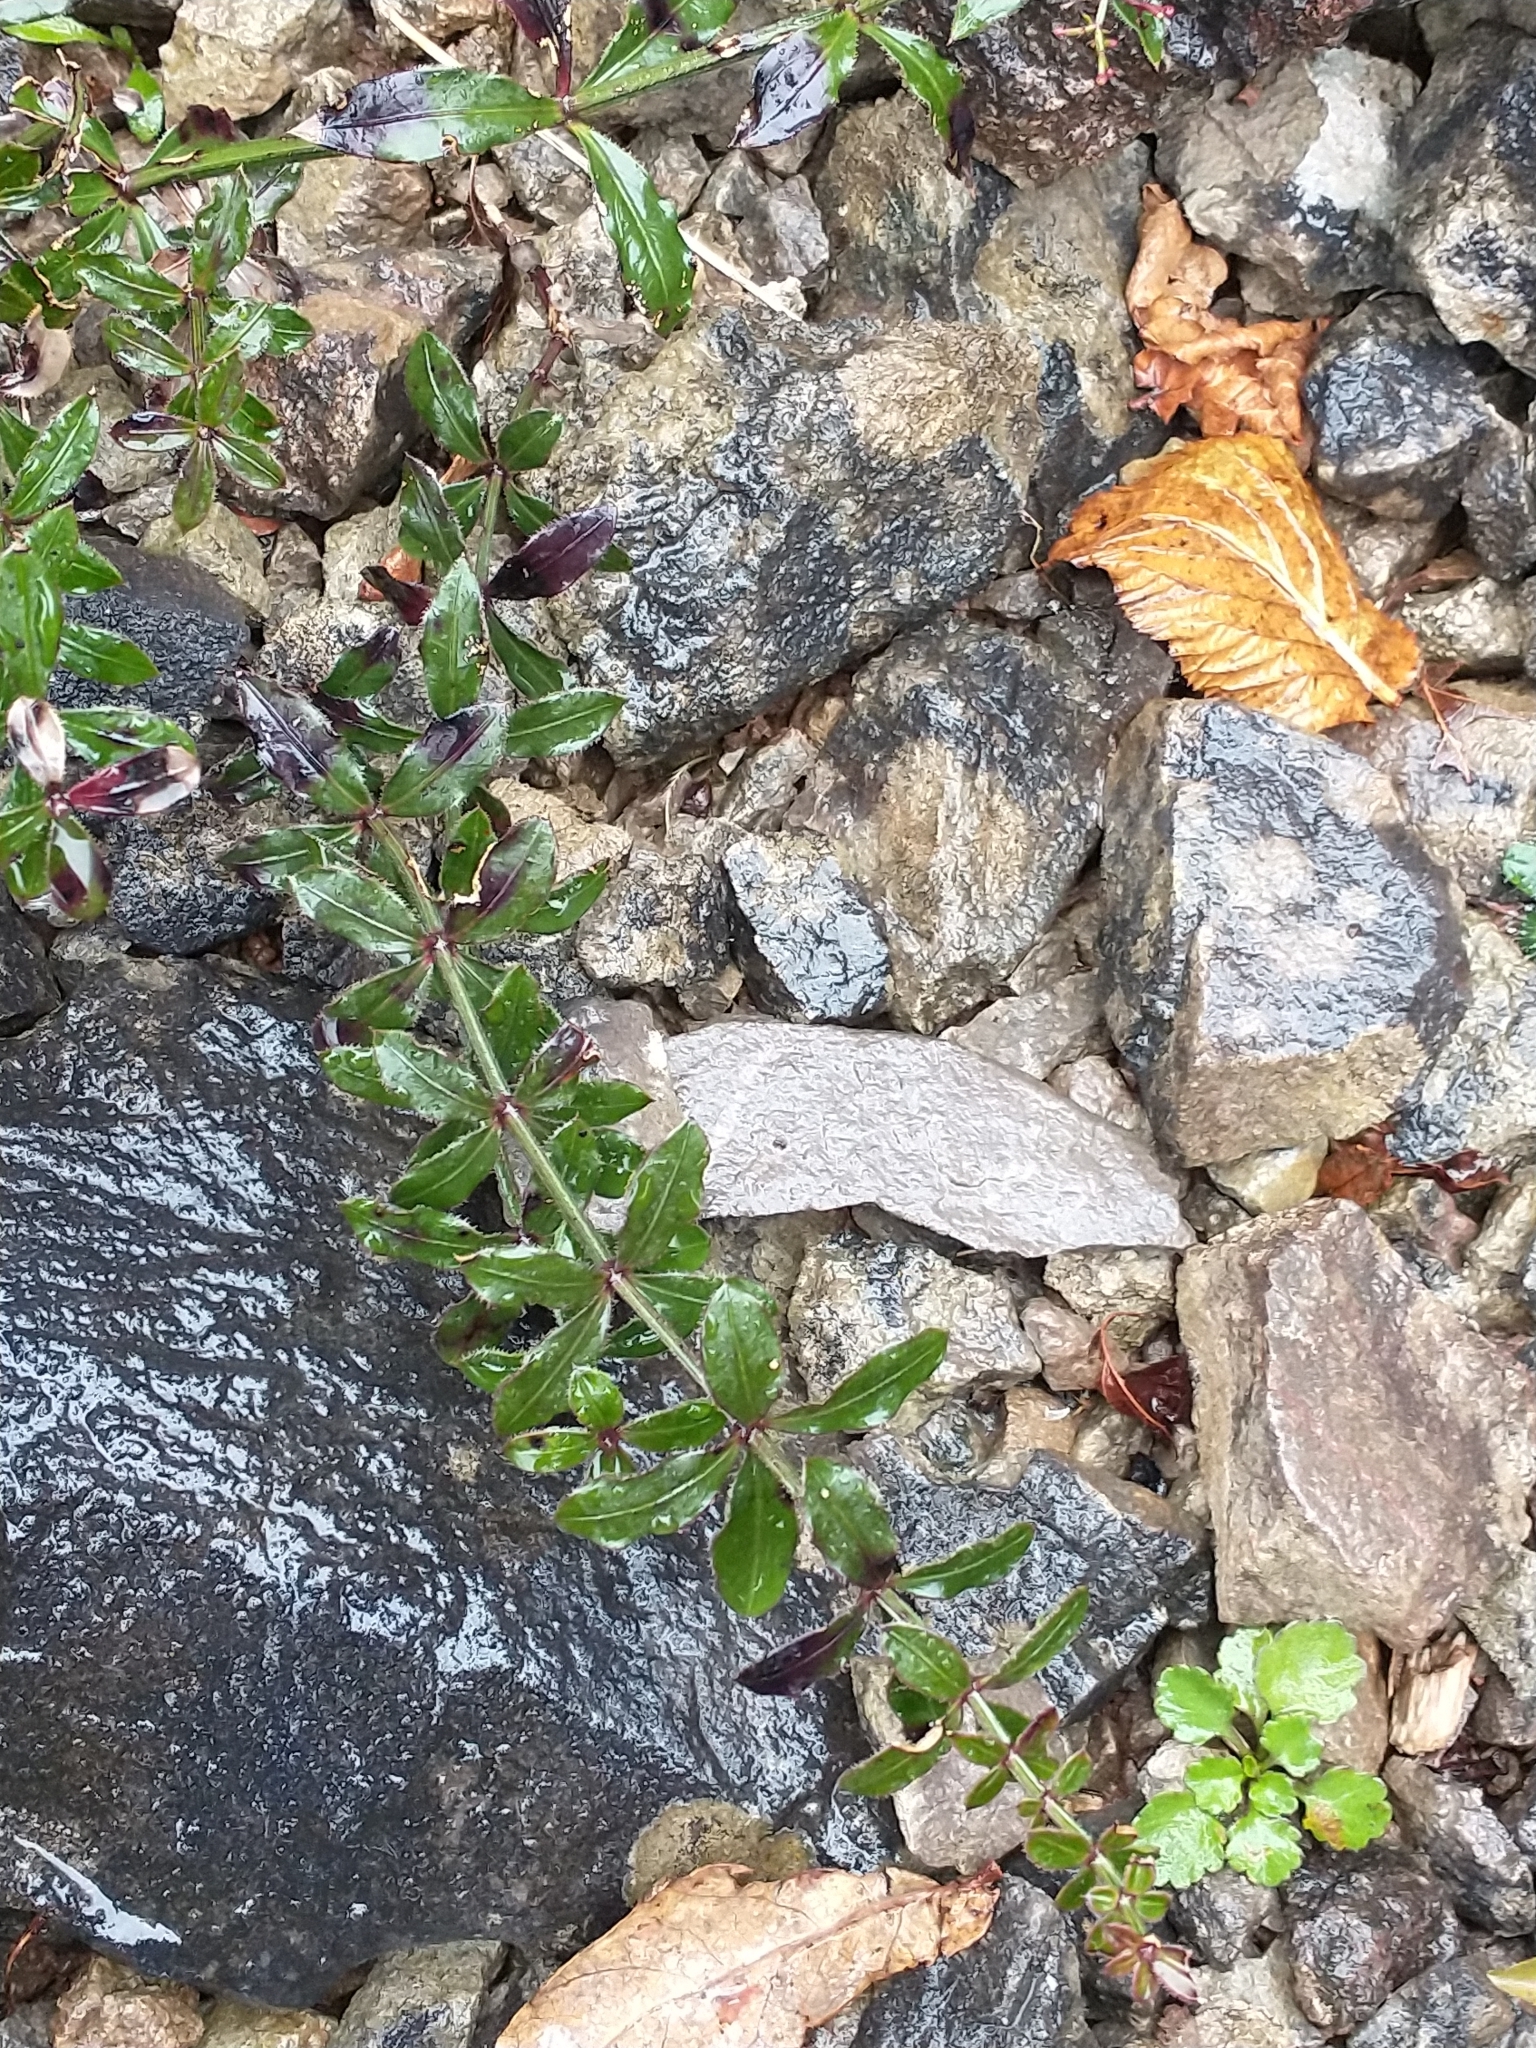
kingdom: Plantae
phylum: Tracheophyta
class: Magnoliopsida
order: Gentianales
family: Rubiaceae
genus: Rubia
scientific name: Rubia peregrina
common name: Wild madder
